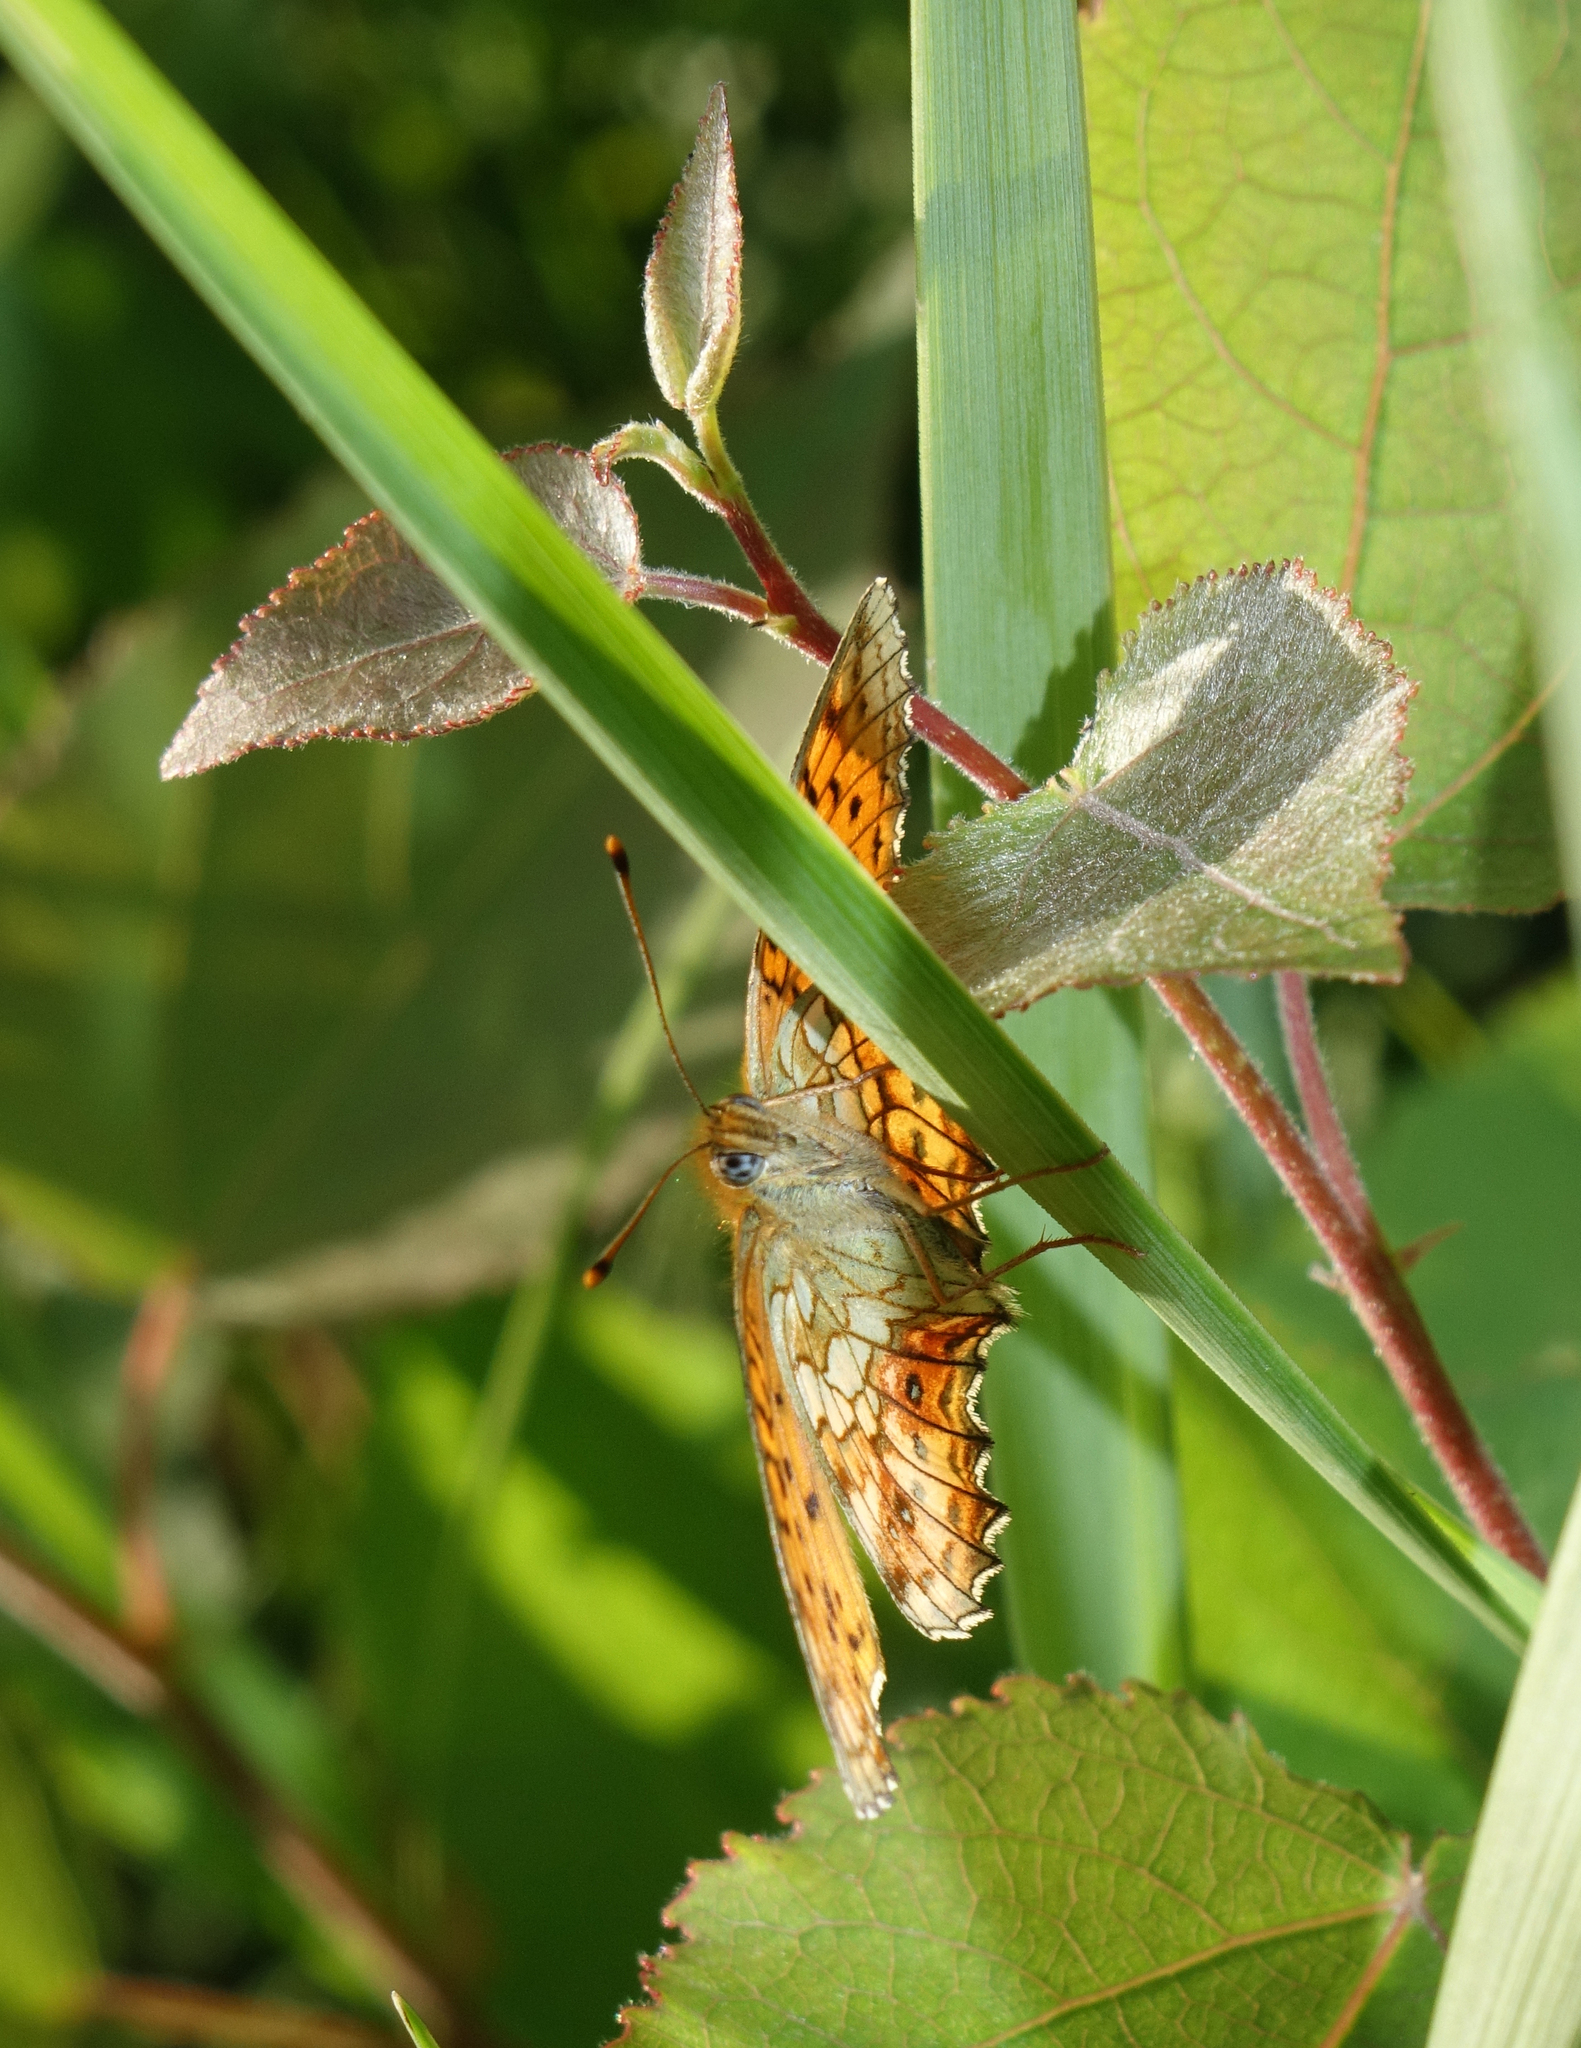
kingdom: Animalia
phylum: Arthropoda
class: Insecta
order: Lepidoptera
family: Nymphalidae
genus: Brenthis
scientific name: Brenthis ino
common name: Lesser marbled fritillary
